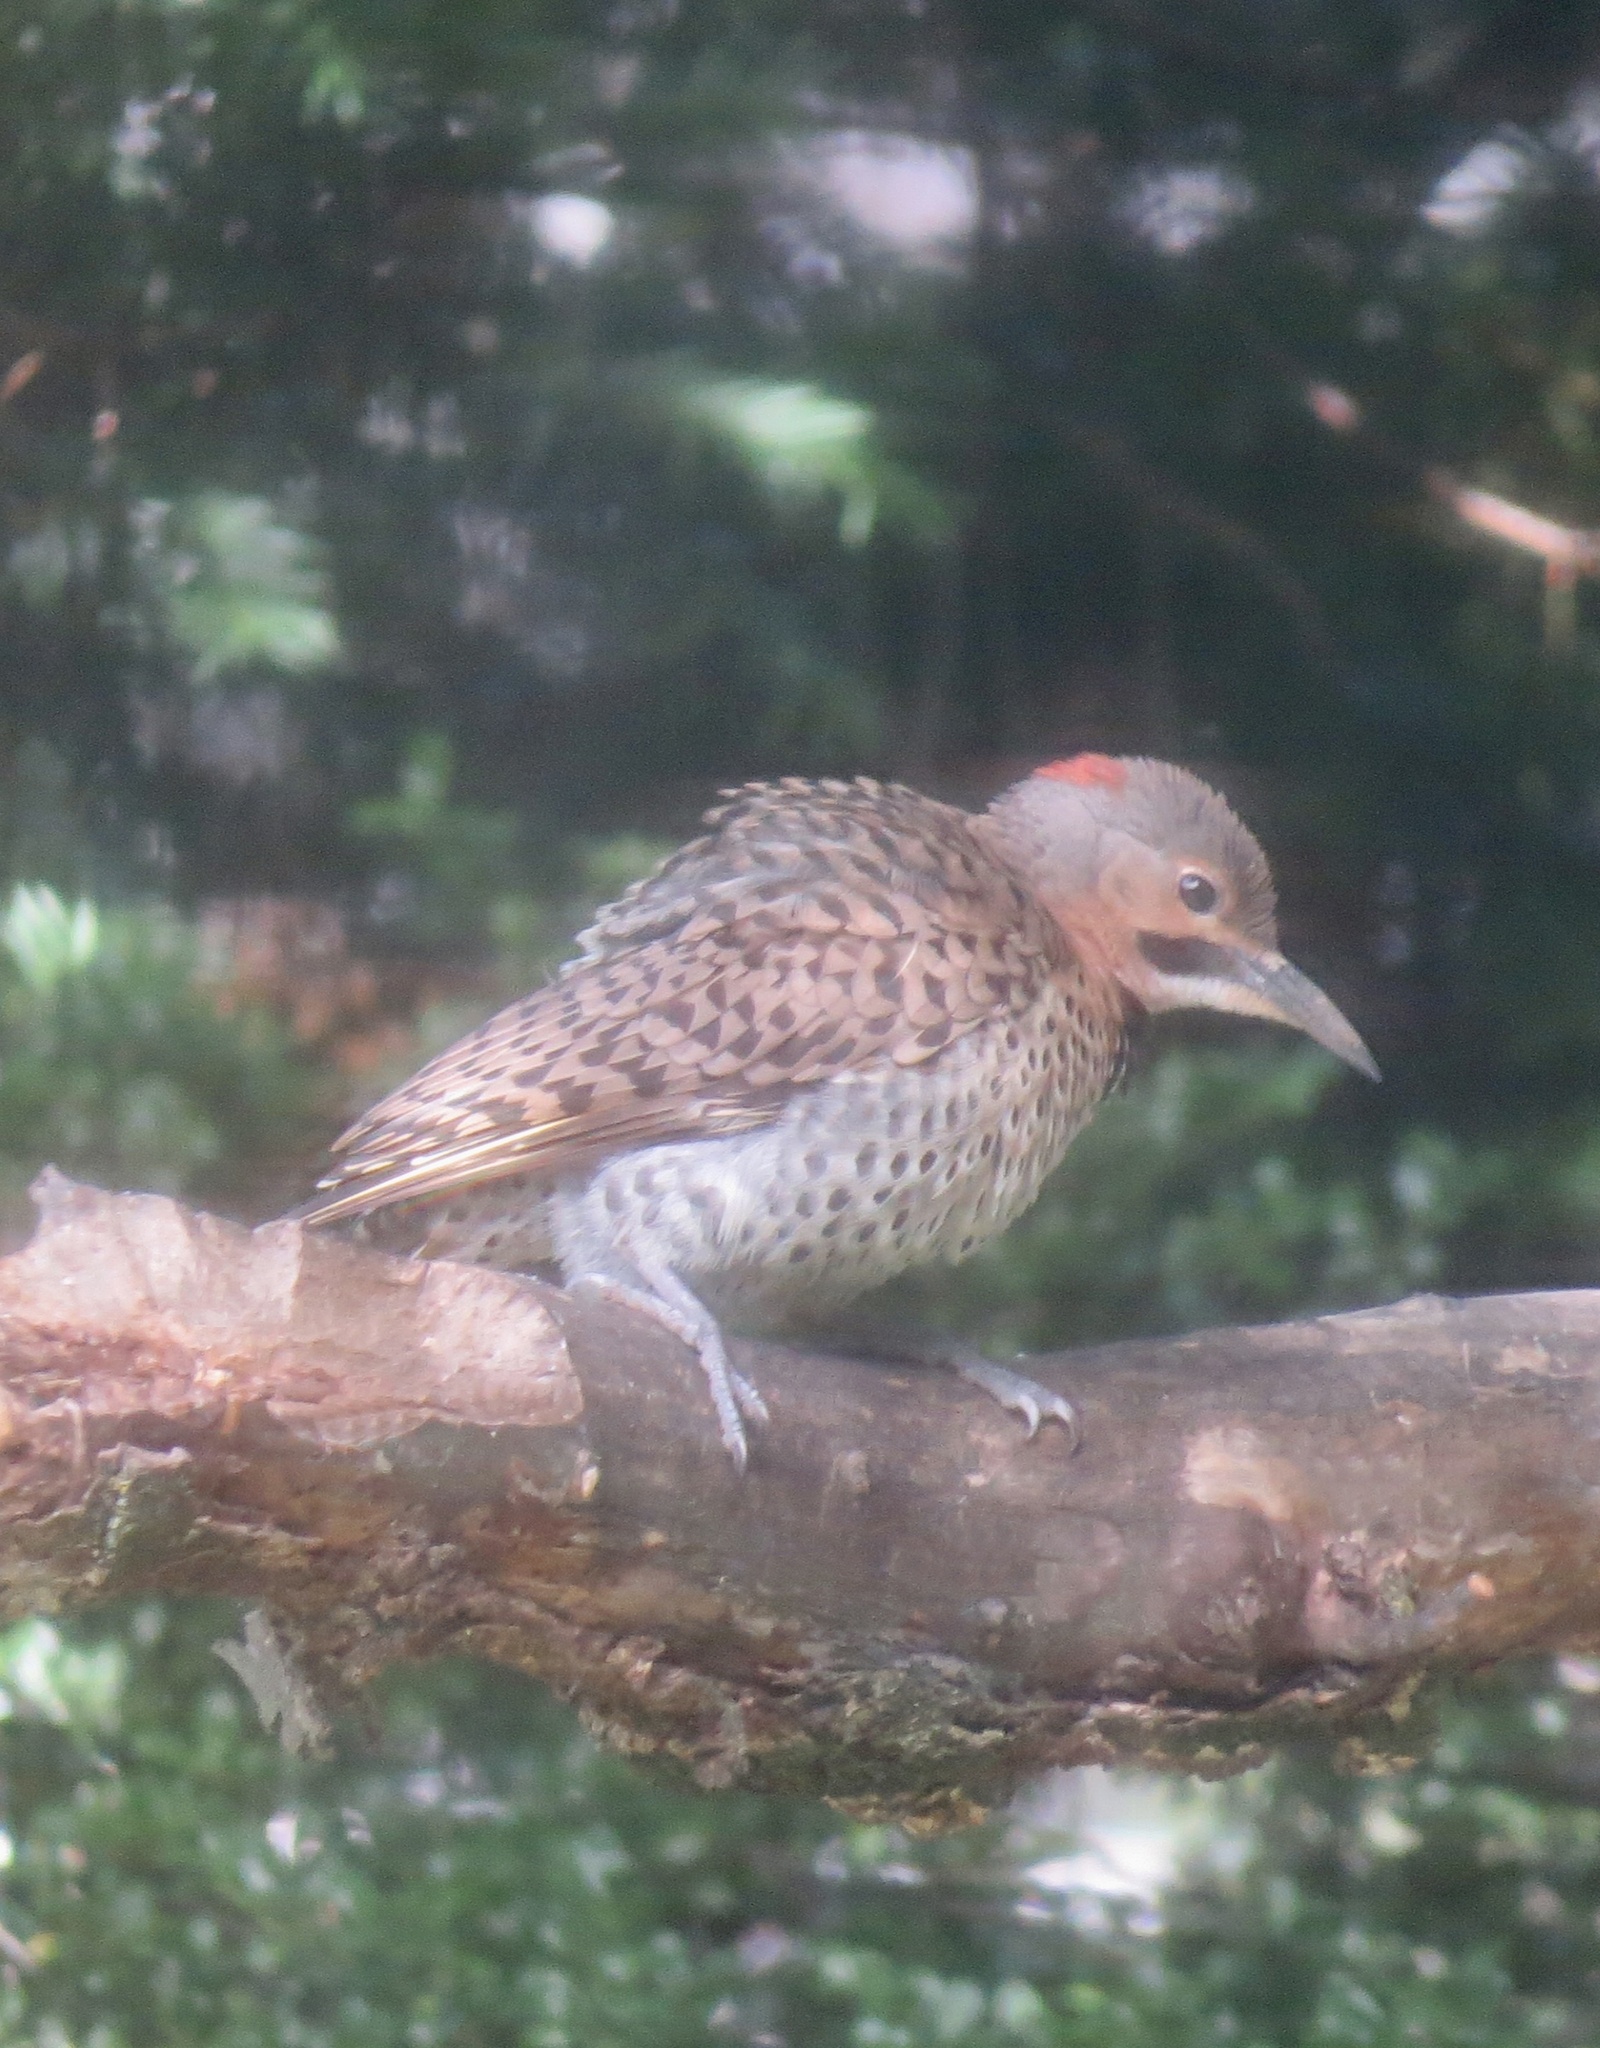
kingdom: Animalia
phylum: Chordata
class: Aves
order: Piciformes
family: Picidae
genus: Colaptes
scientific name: Colaptes auratus
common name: Northern flicker
